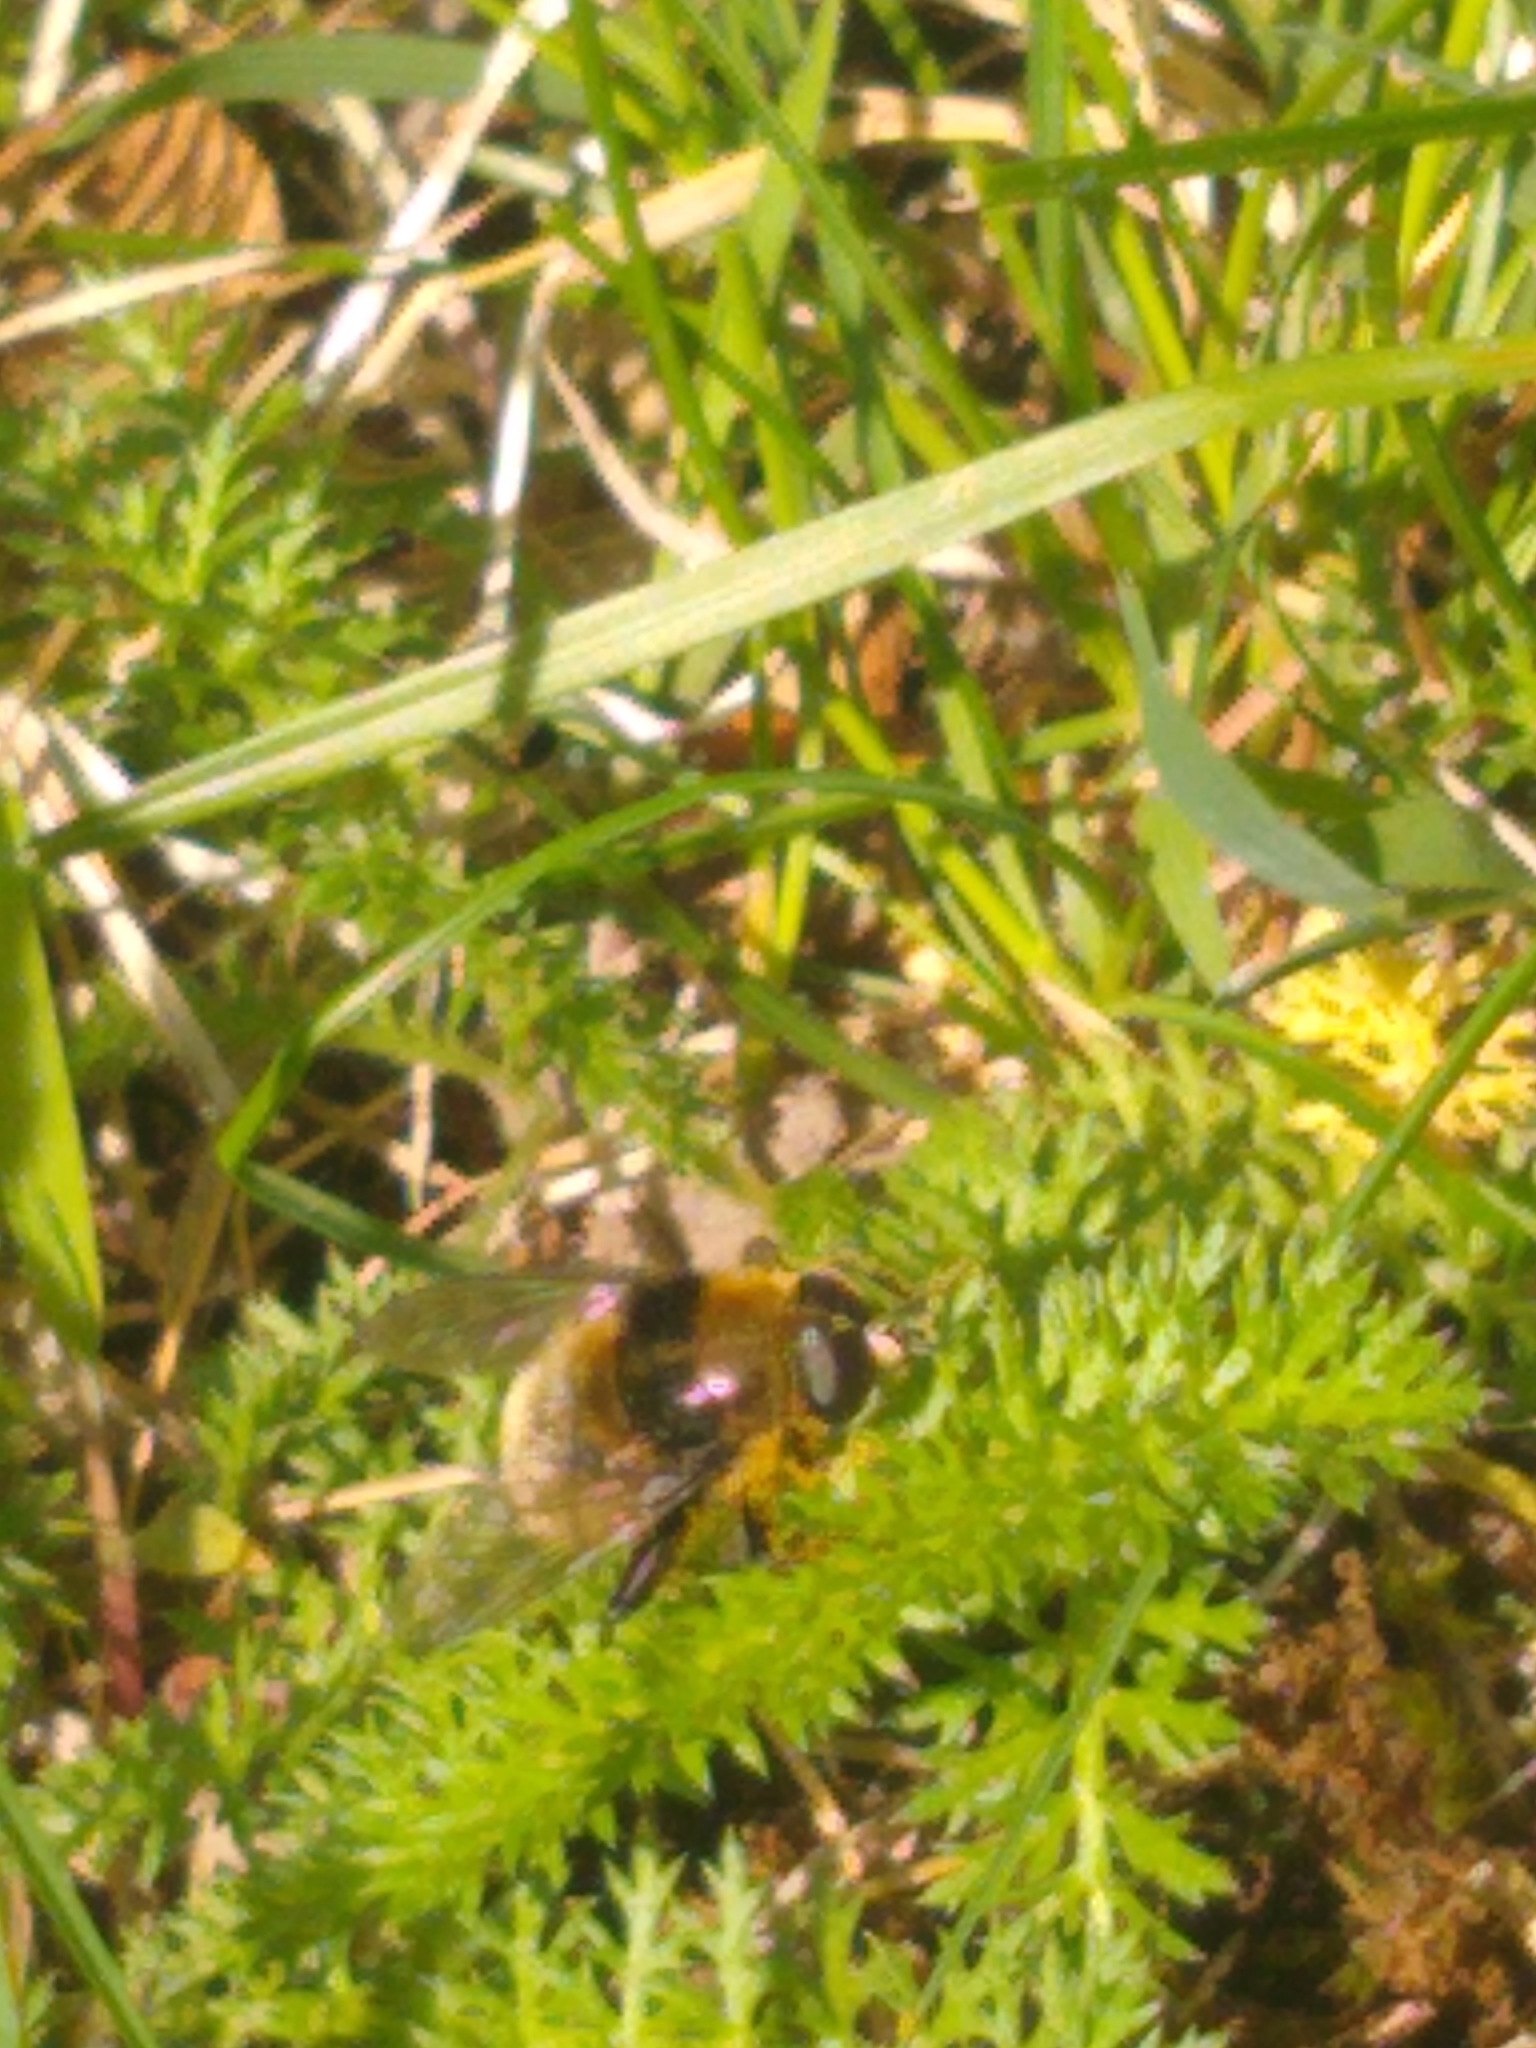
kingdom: Animalia
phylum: Arthropoda
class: Insecta
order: Diptera
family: Syrphidae
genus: Merodon
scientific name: Merodon equestris
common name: Greater bulb-fly
